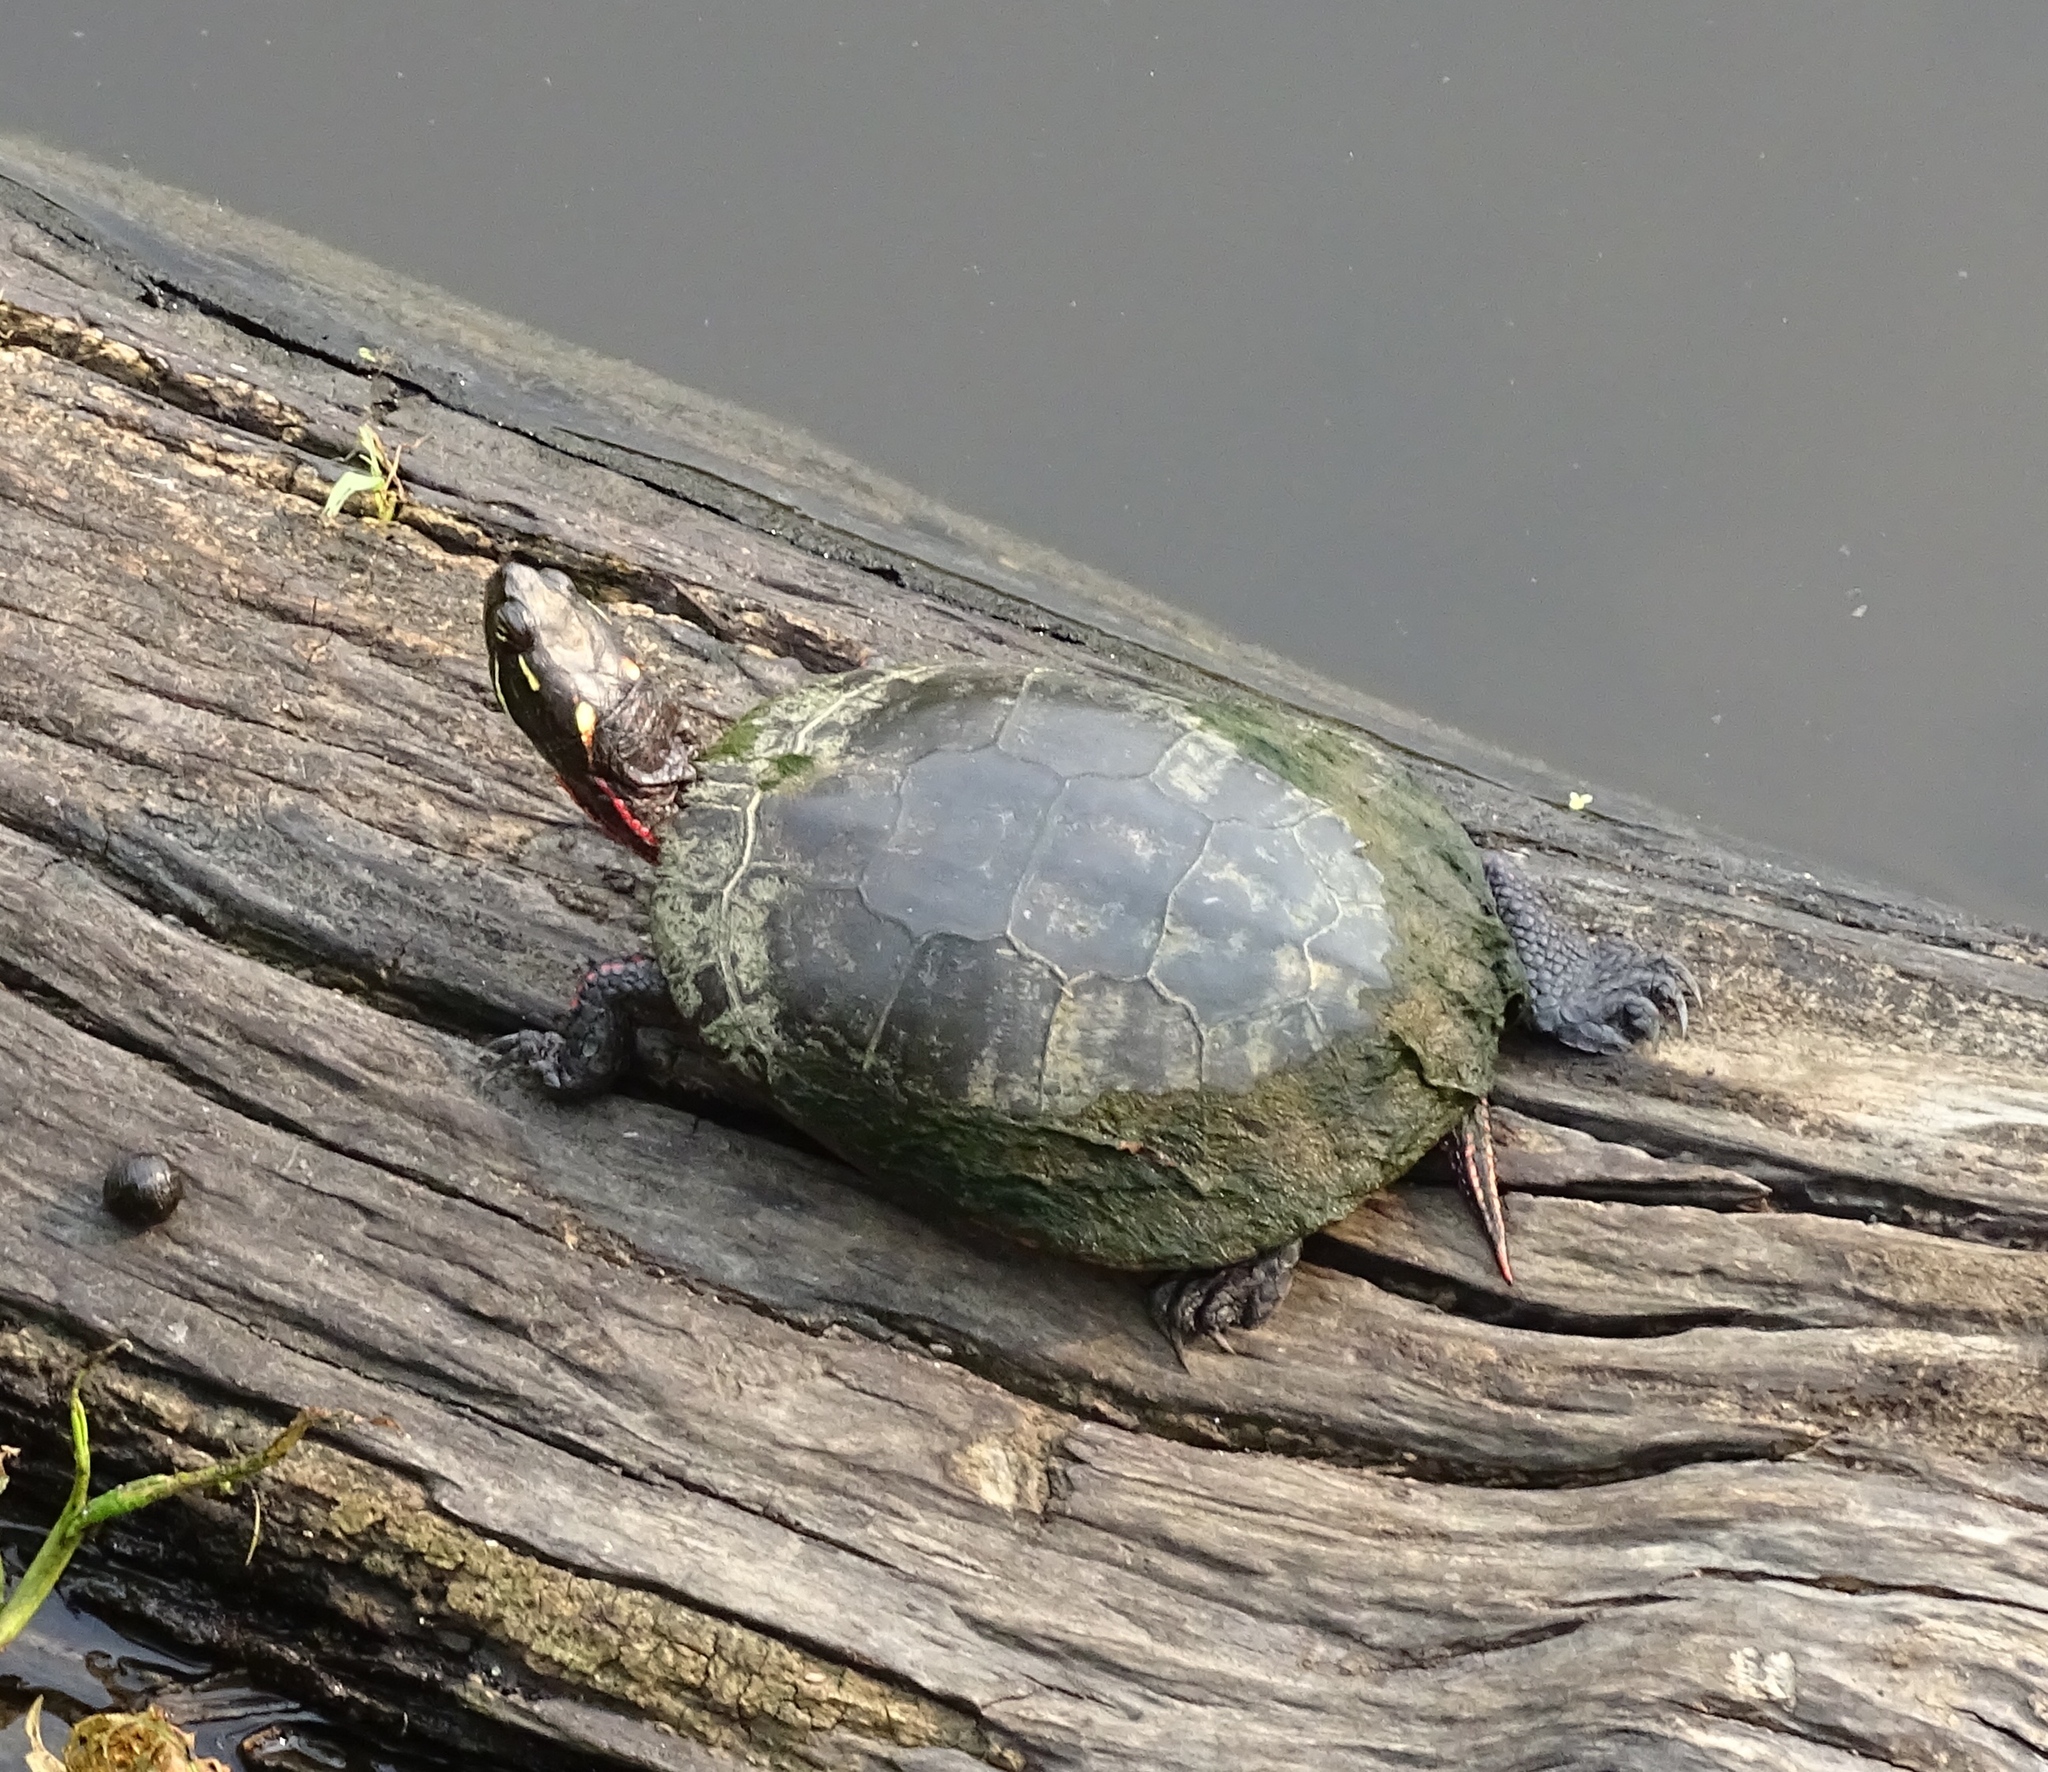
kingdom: Animalia
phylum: Chordata
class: Testudines
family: Emydidae
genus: Chrysemys
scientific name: Chrysemys picta
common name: Painted turtle
